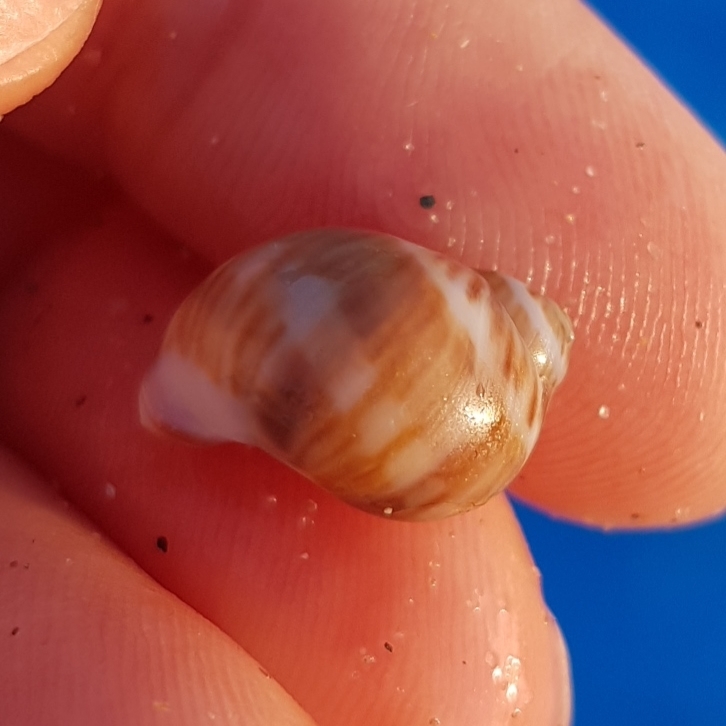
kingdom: Animalia
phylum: Mollusca
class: Gastropoda
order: Littorinimorpha
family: Naticidae
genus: Euspira
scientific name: Euspira macilenta
